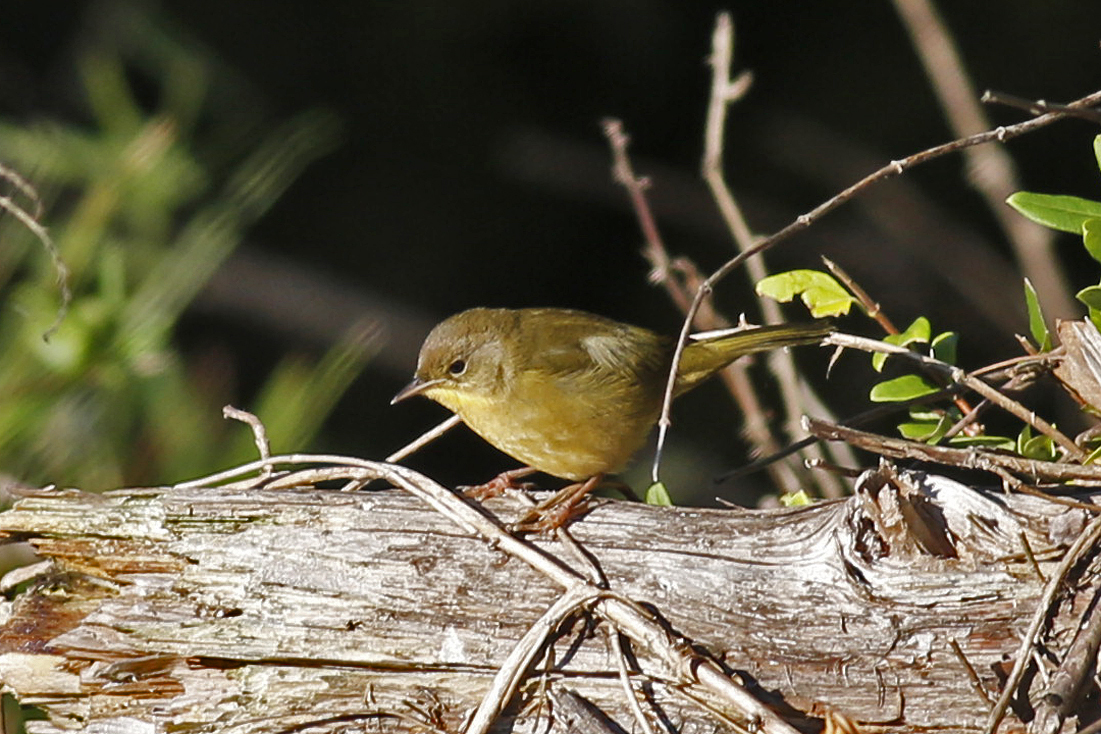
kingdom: Animalia
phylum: Chordata
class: Aves
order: Passeriformes
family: Parulidae
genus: Geothlypis
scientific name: Geothlypis trichas
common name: Common yellowthroat
